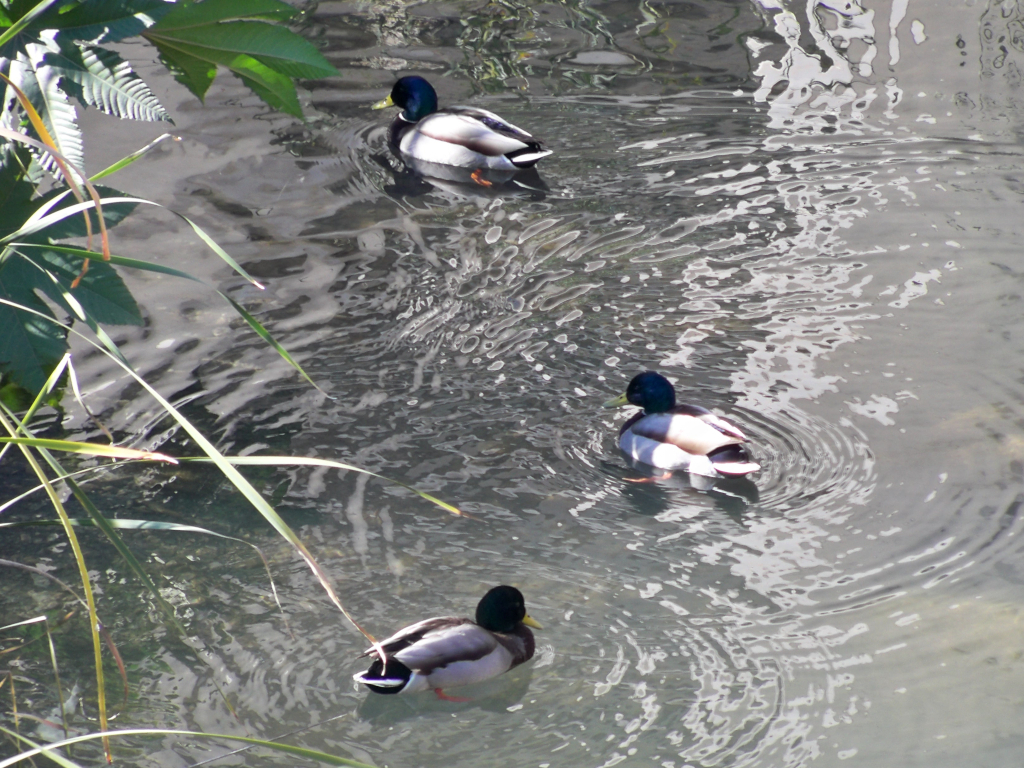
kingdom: Animalia
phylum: Chordata
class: Aves
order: Anseriformes
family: Anatidae
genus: Anas
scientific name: Anas platyrhynchos
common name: Mallard
